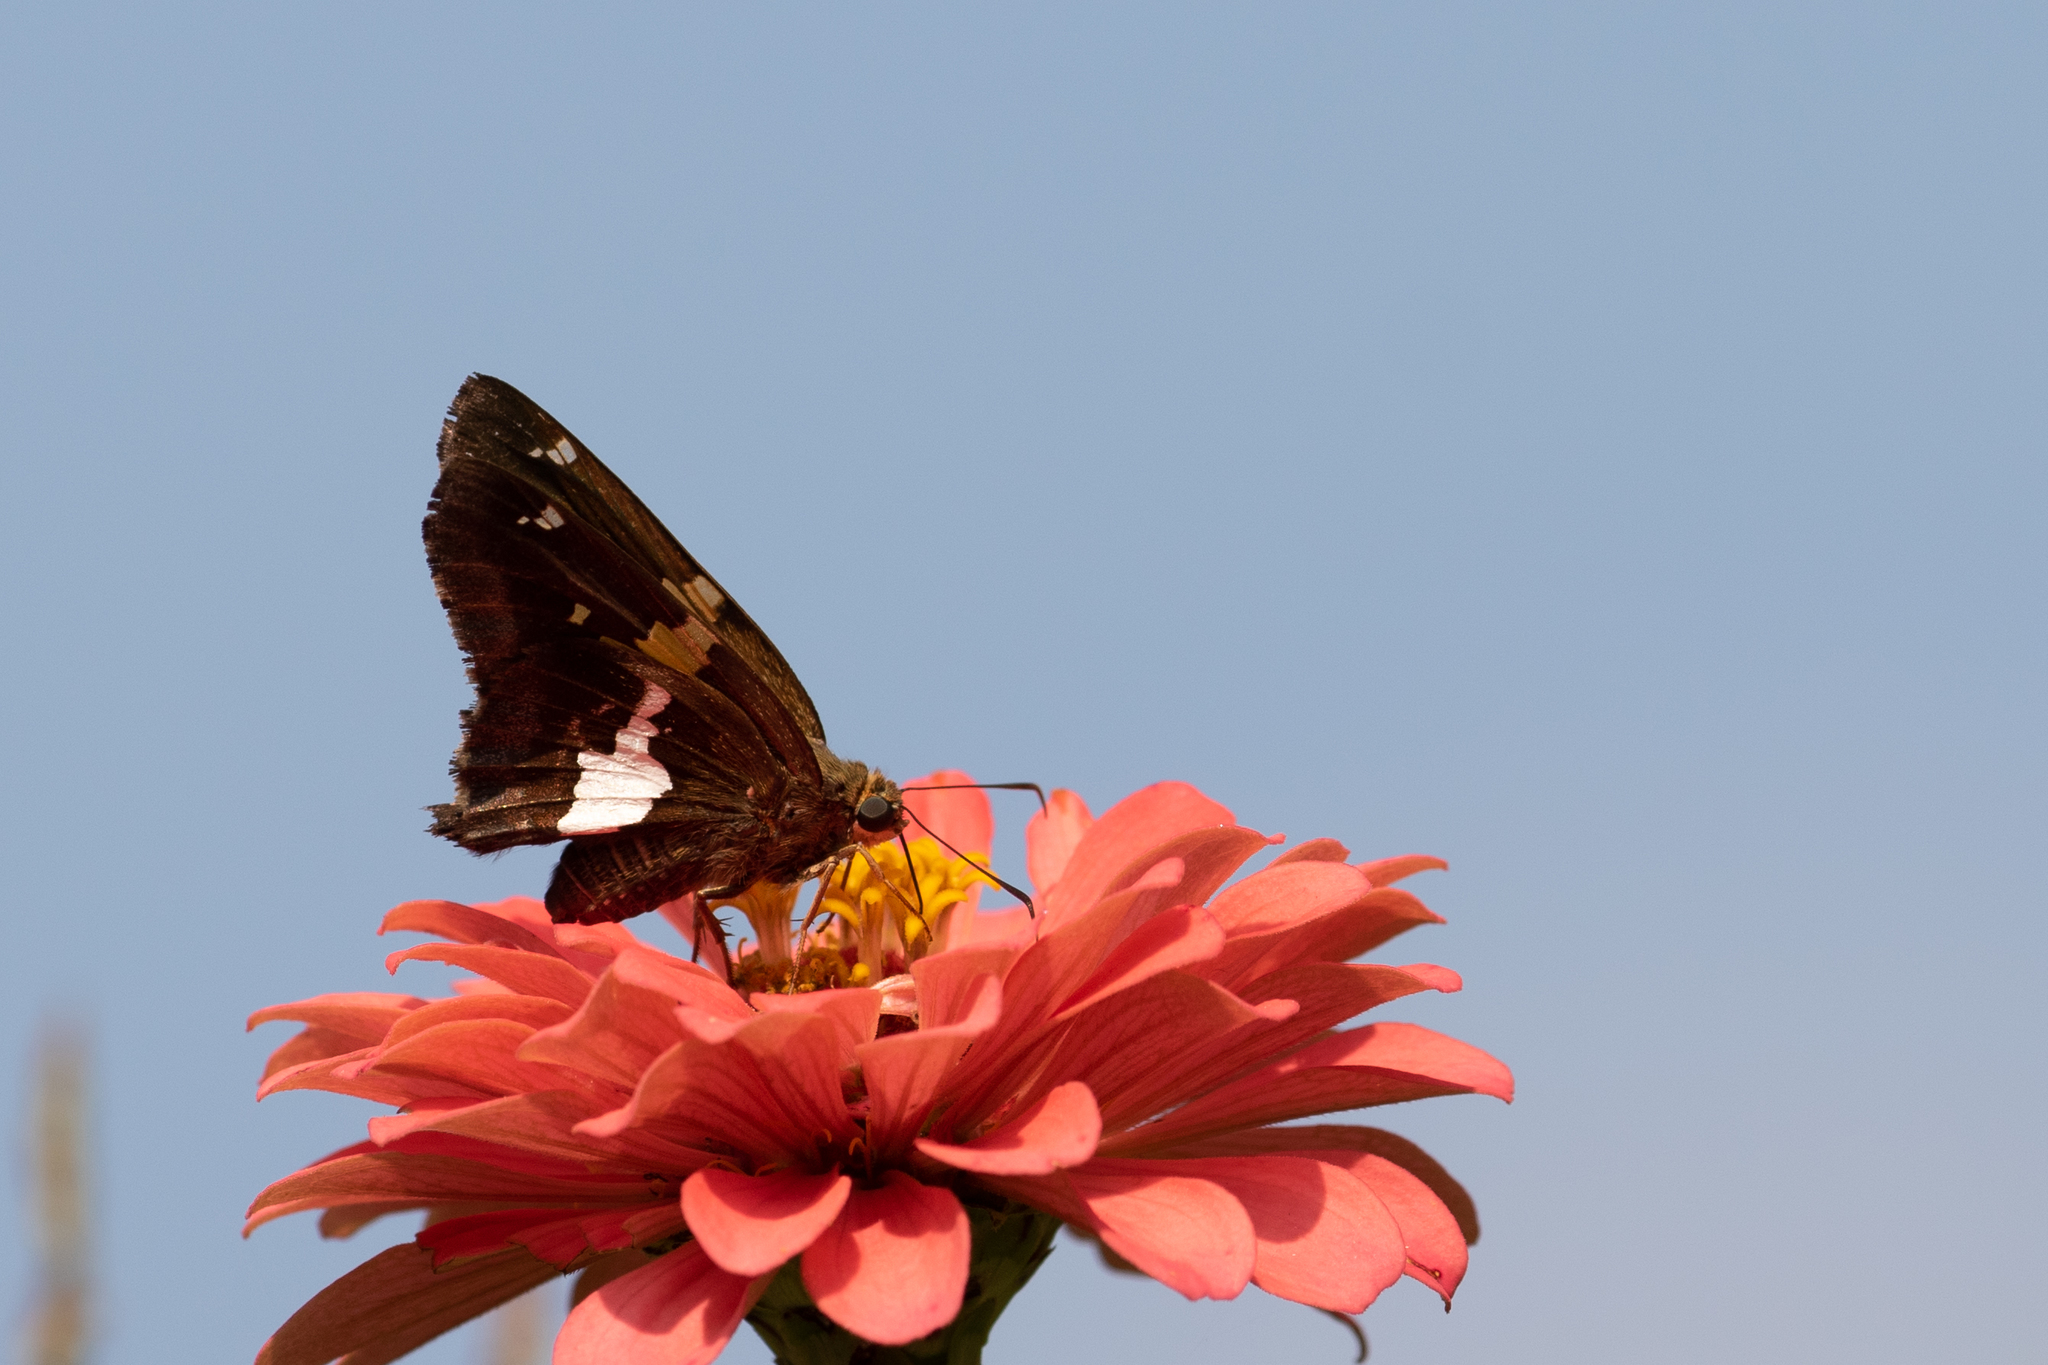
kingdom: Animalia
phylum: Arthropoda
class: Insecta
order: Lepidoptera
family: Hesperiidae
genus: Epargyreus
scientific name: Epargyreus clarus
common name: Silver-spotted skipper
